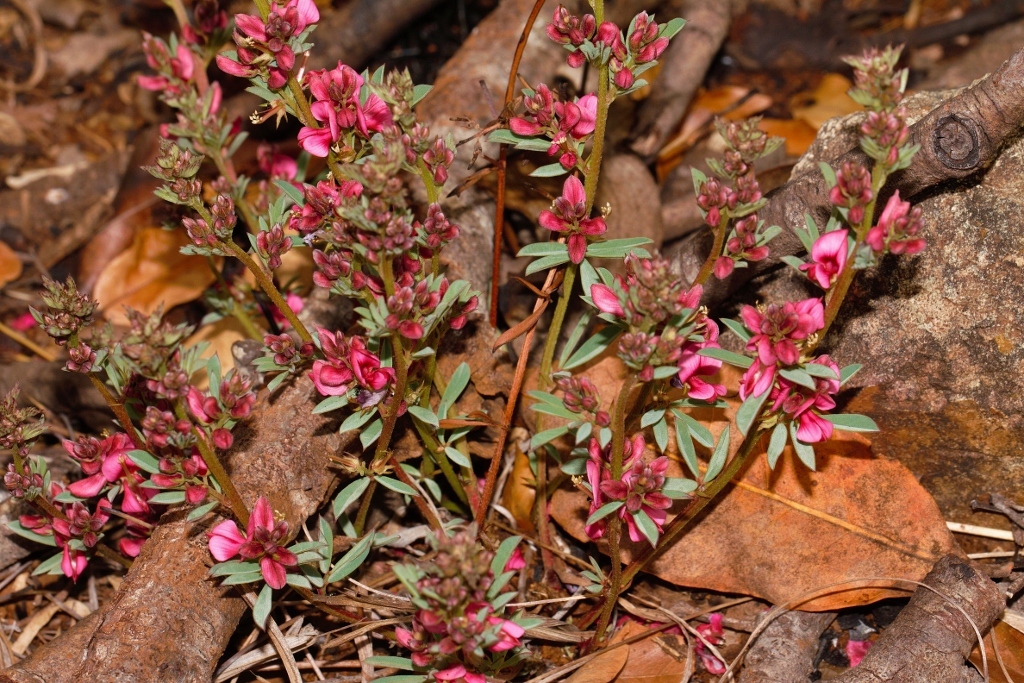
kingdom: Plantae
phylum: Tracheophyta
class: Magnoliopsida
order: Fabales
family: Fabaceae
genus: Indigofera
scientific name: Indigofera hilaris
